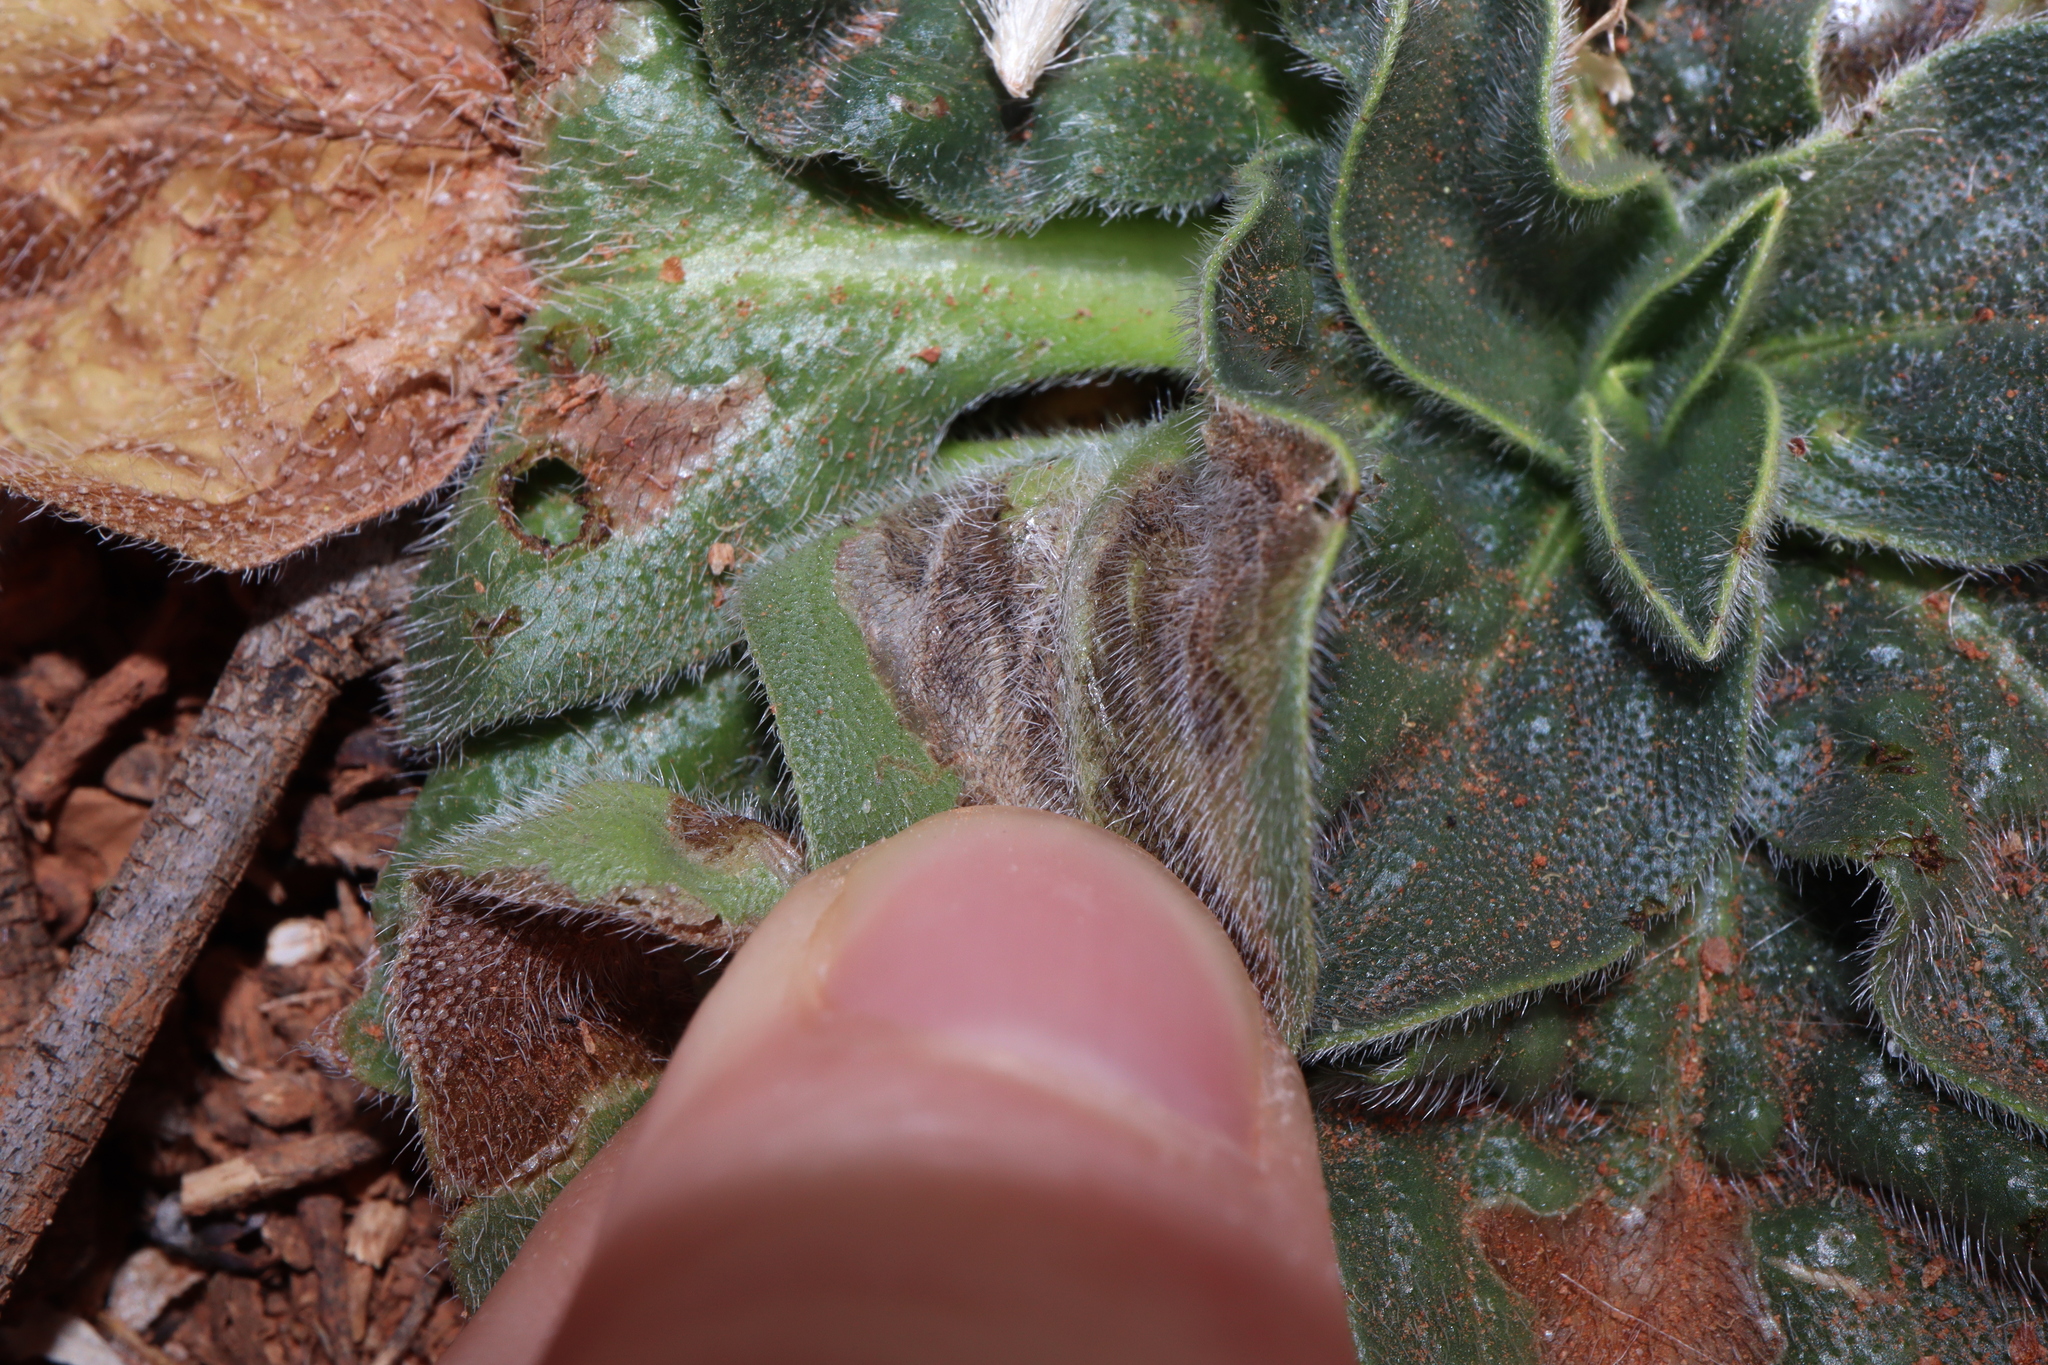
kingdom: Plantae
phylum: Tracheophyta
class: Magnoliopsida
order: Boraginales
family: Boraginaceae
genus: Echium
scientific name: Echium plantagineum
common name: Purple viper's-bugloss
